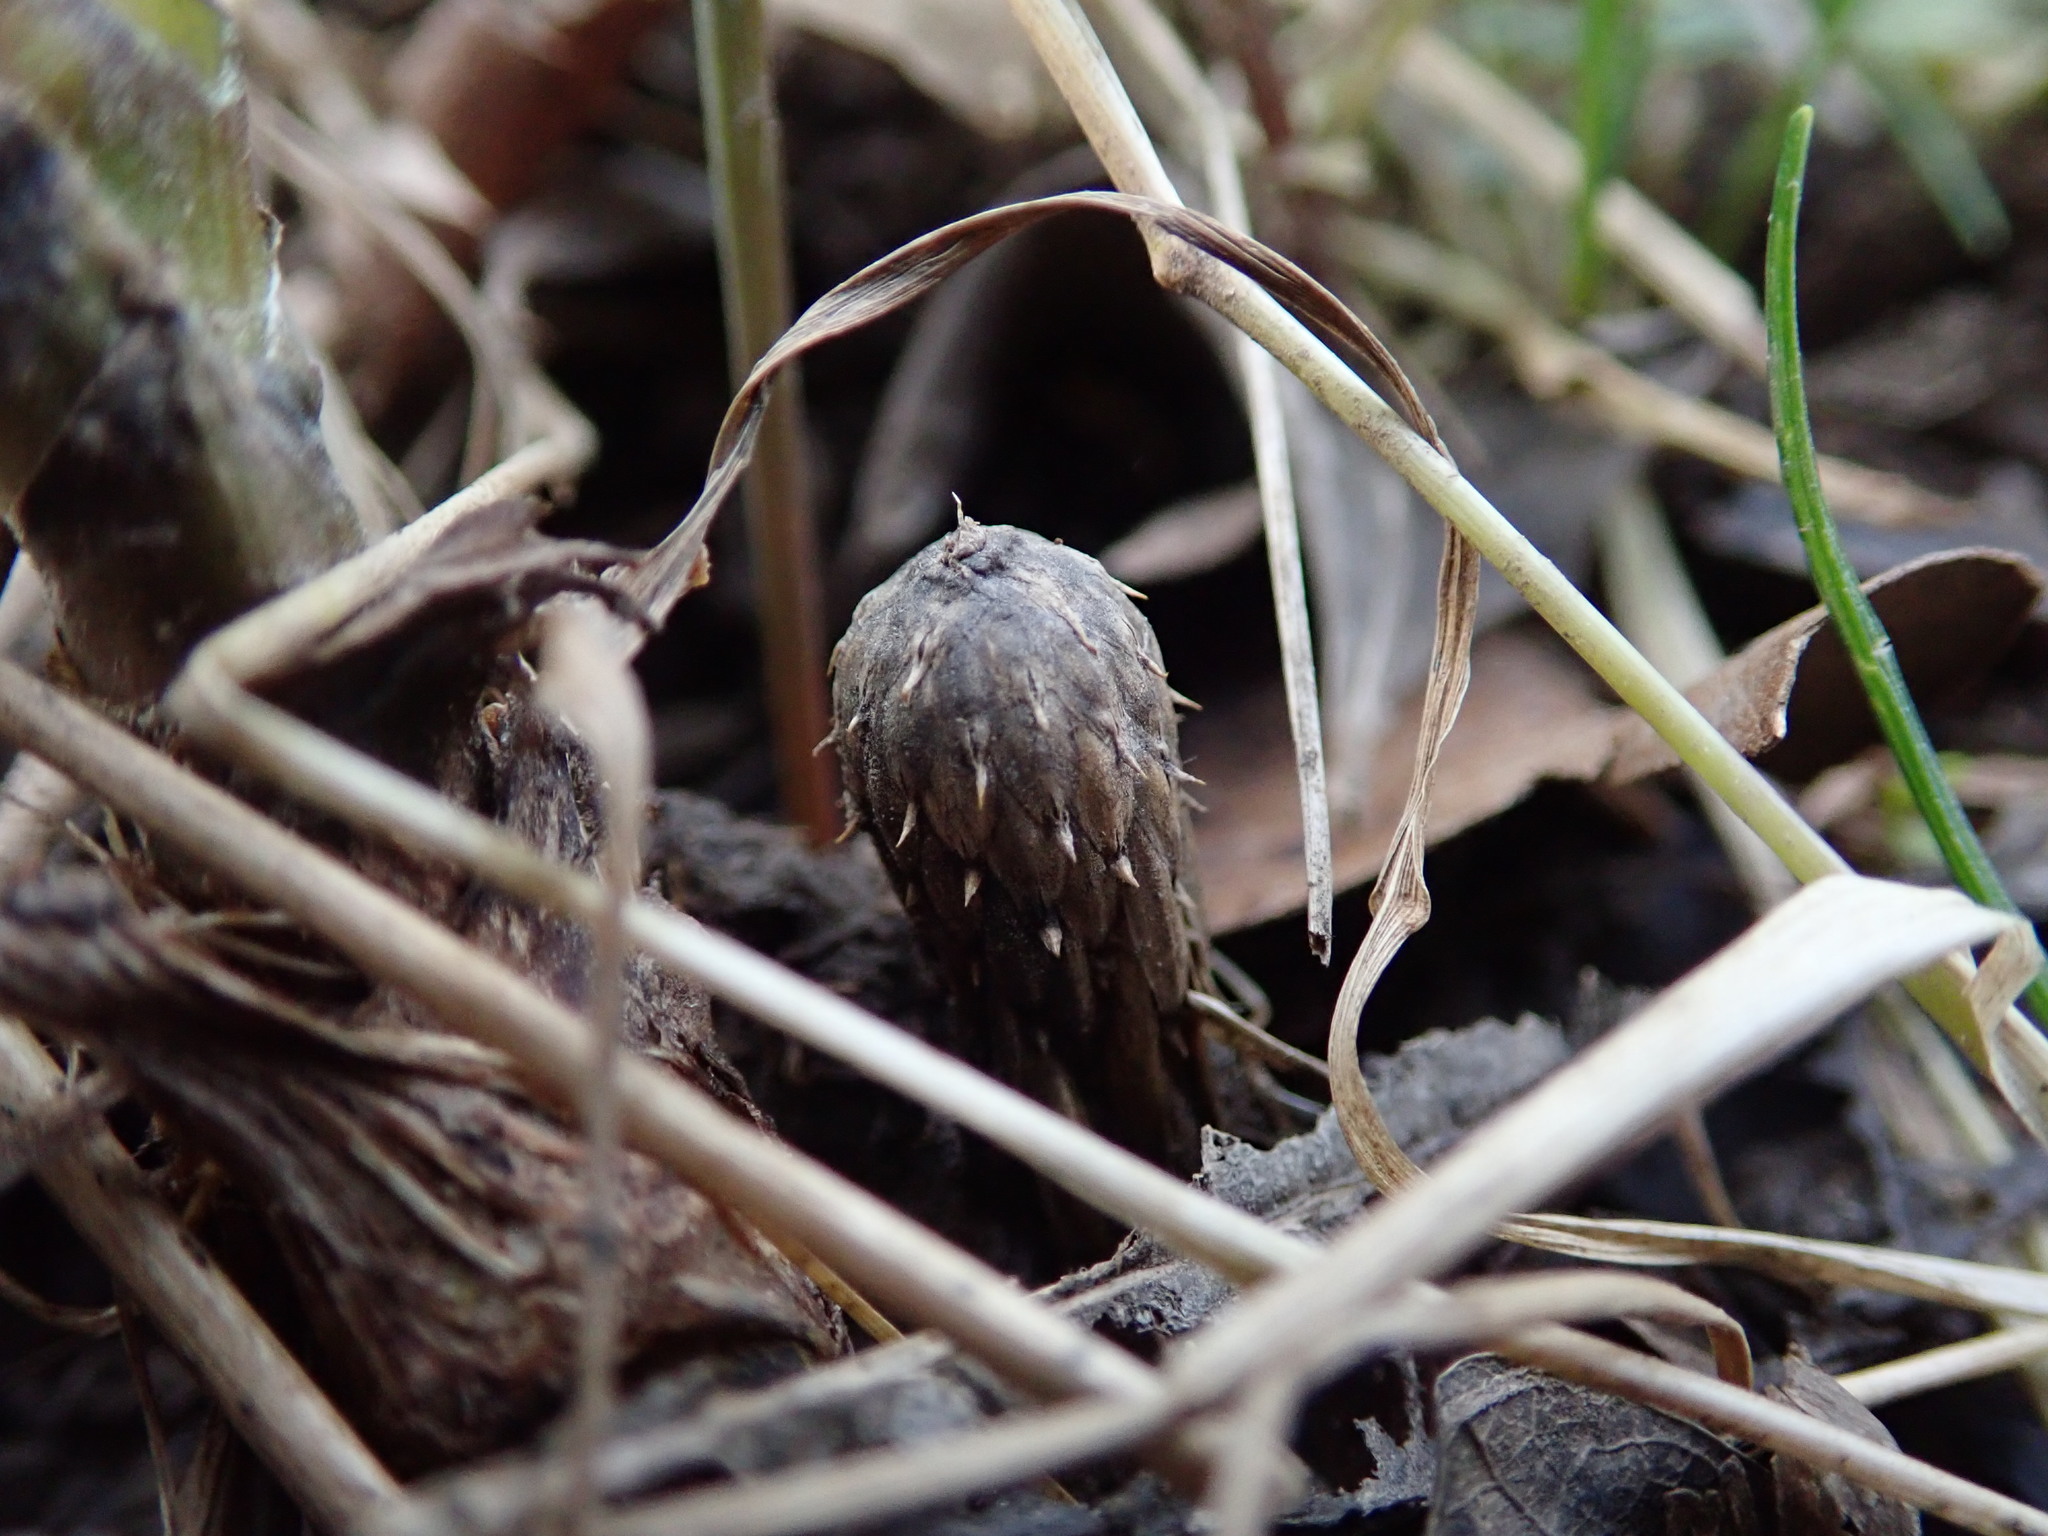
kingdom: Plantae
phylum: Tracheophyta
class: Magnoliopsida
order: Asterales
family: Asteraceae
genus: Tussilago
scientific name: Tussilago farfara
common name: Coltsfoot
